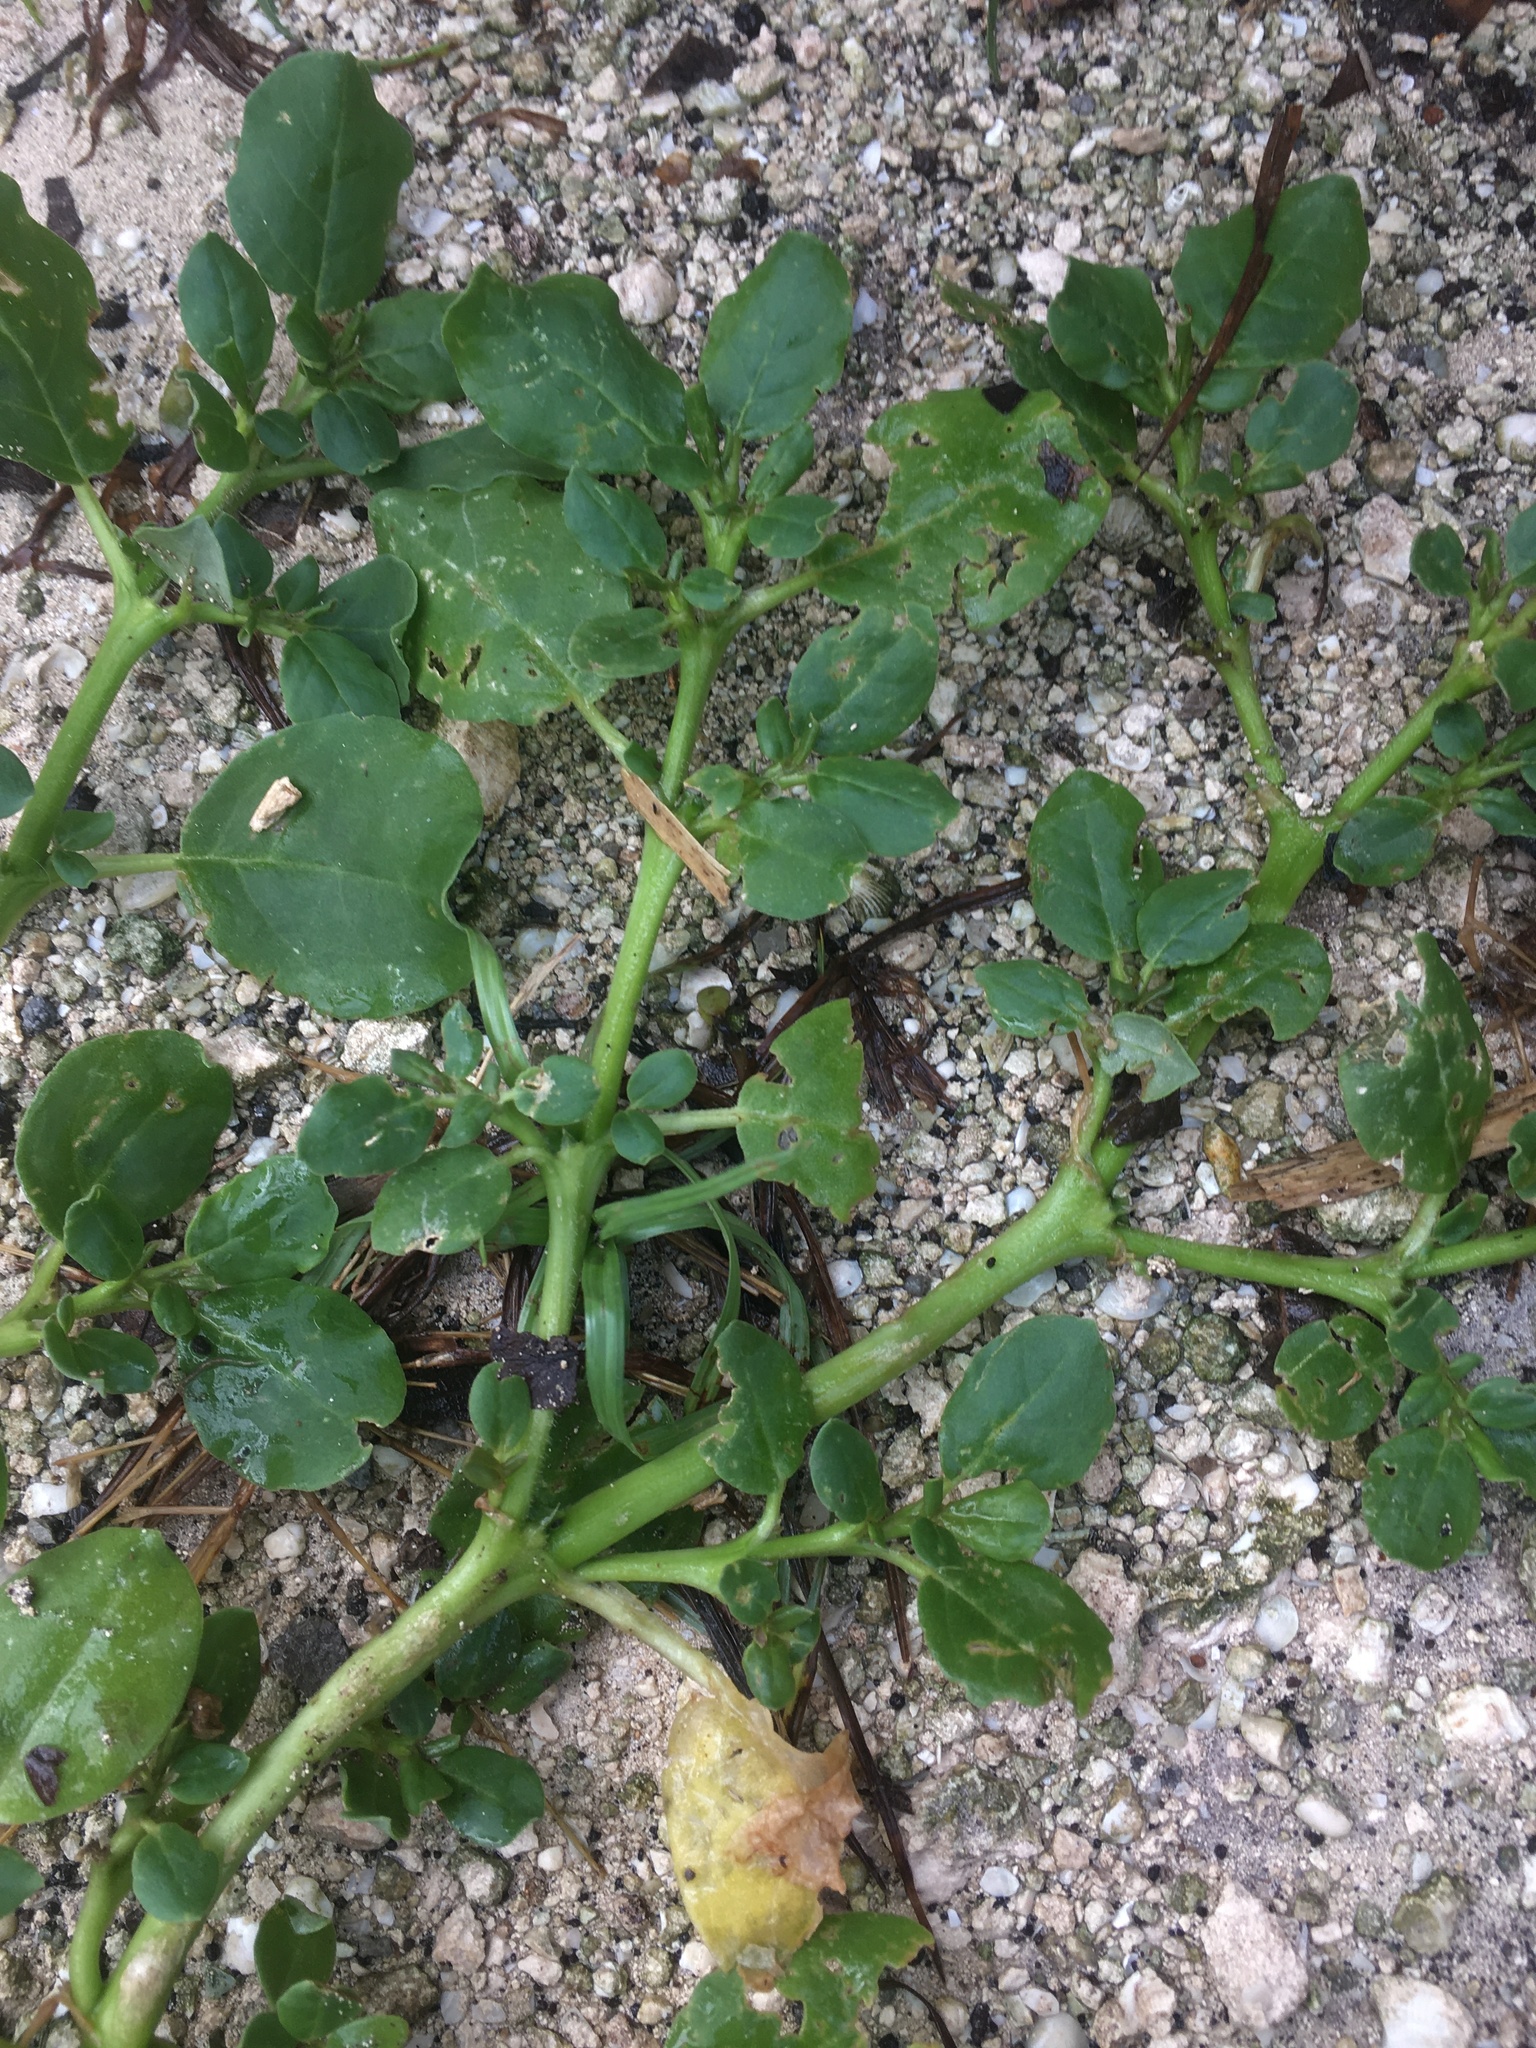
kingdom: Plantae
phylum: Tracheophyta
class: Magnoliopsida
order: Caryophyllales
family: Aizoaceae
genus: Trianthema
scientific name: Trianthema portulacastrum
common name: Desert horsepurslane
